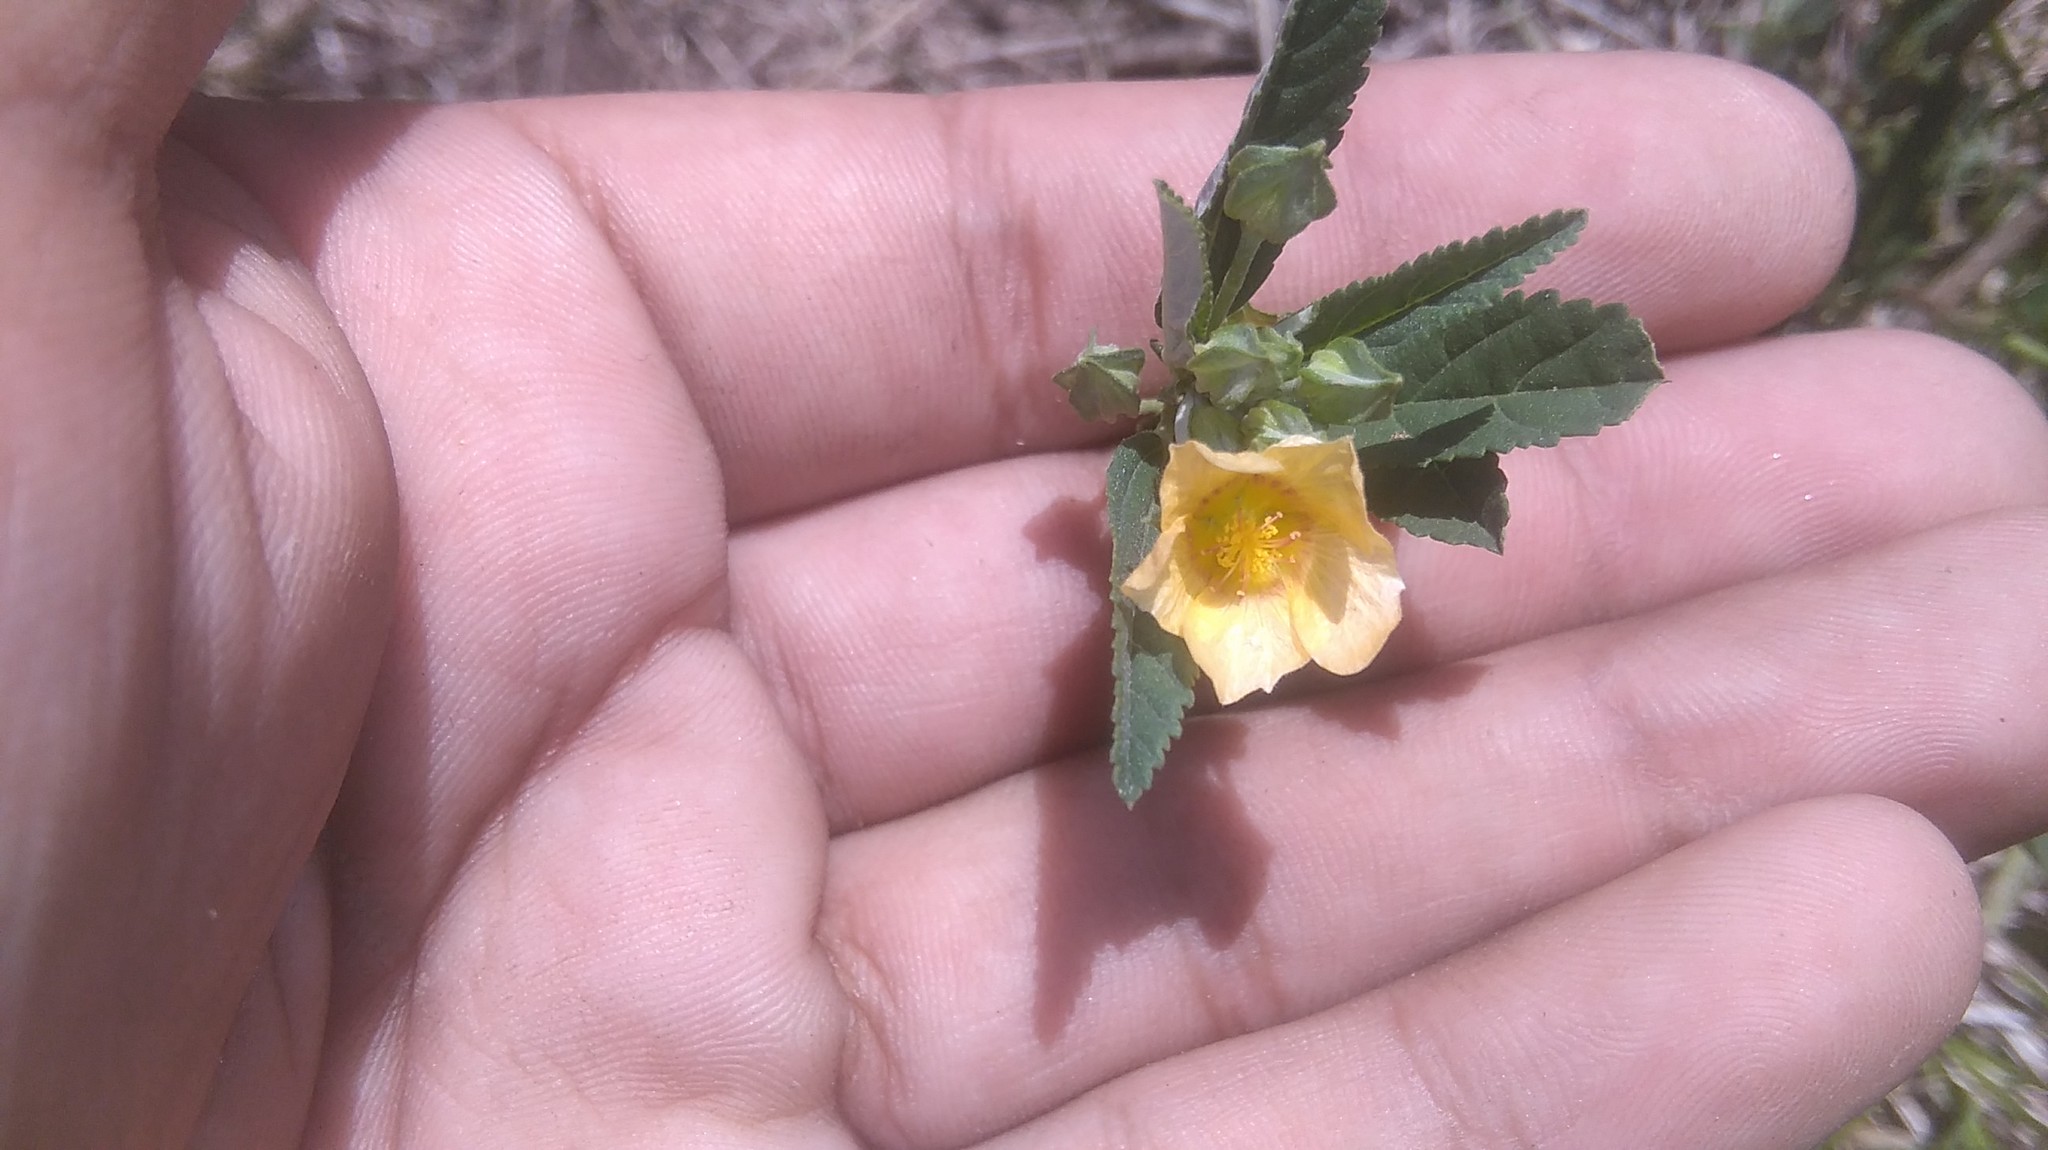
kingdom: Plantae
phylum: Tracheophyta
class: Magnoliopsida
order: Malvales
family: Malvaceae
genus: Sida
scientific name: Sida rhombifolia
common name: Queensland-hemp
